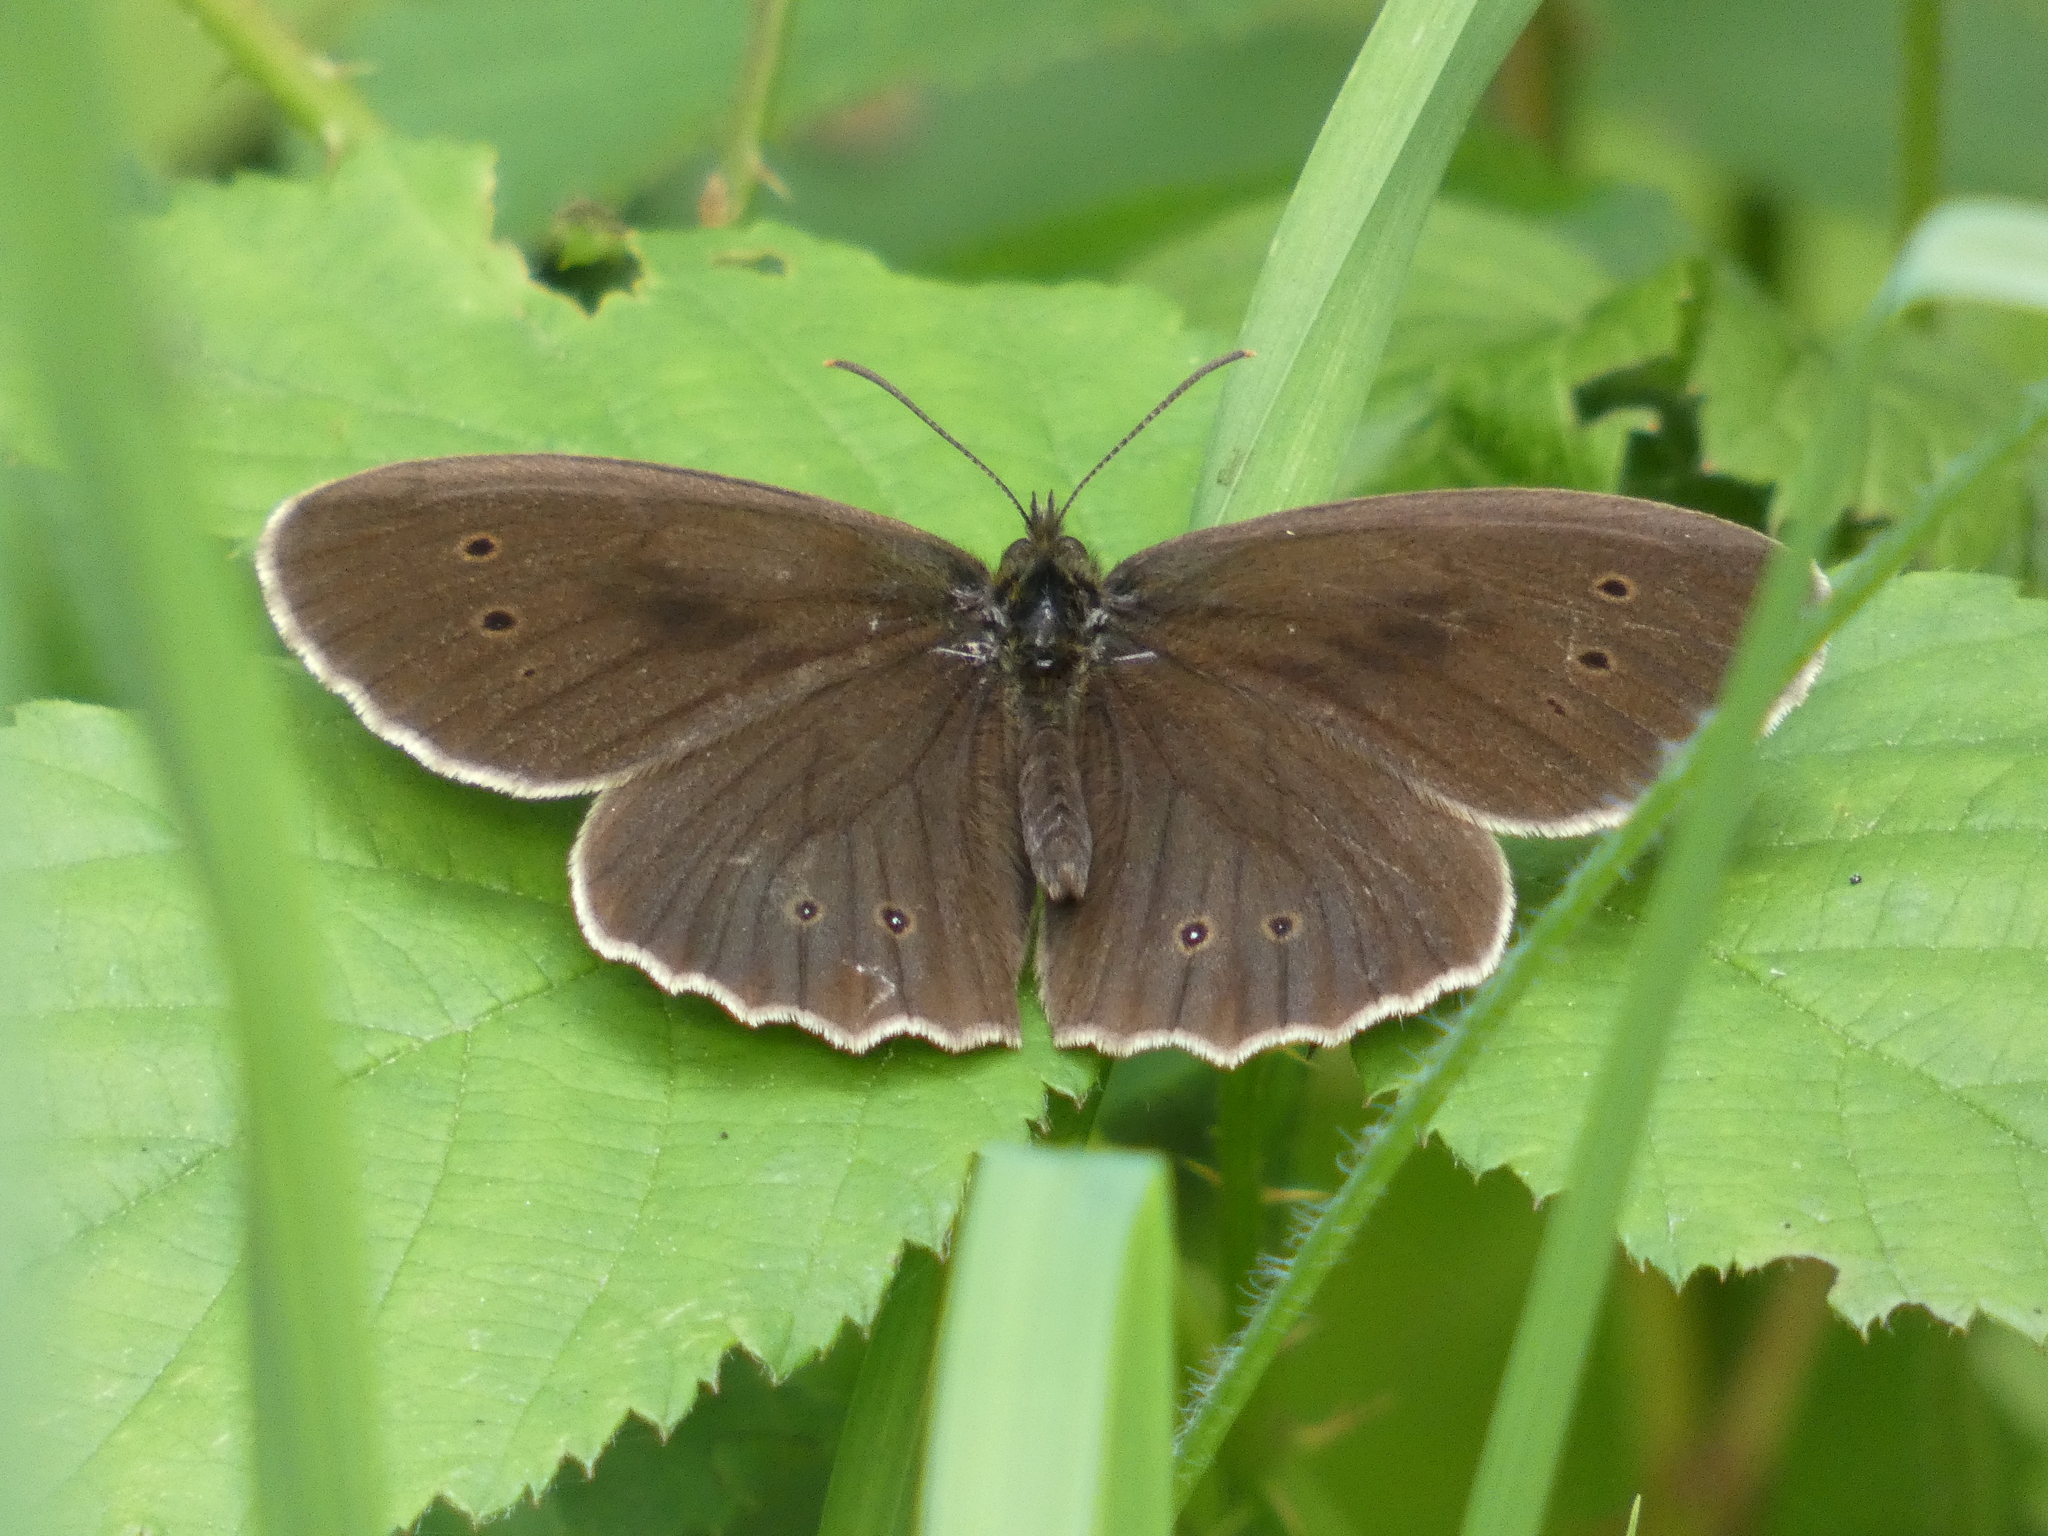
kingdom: Animalia
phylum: Arthropoda
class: Insecta
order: Lepidoptera
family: Nymphalidae
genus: Aphantopus
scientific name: Aphantopus hyperantus
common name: Ringlet
